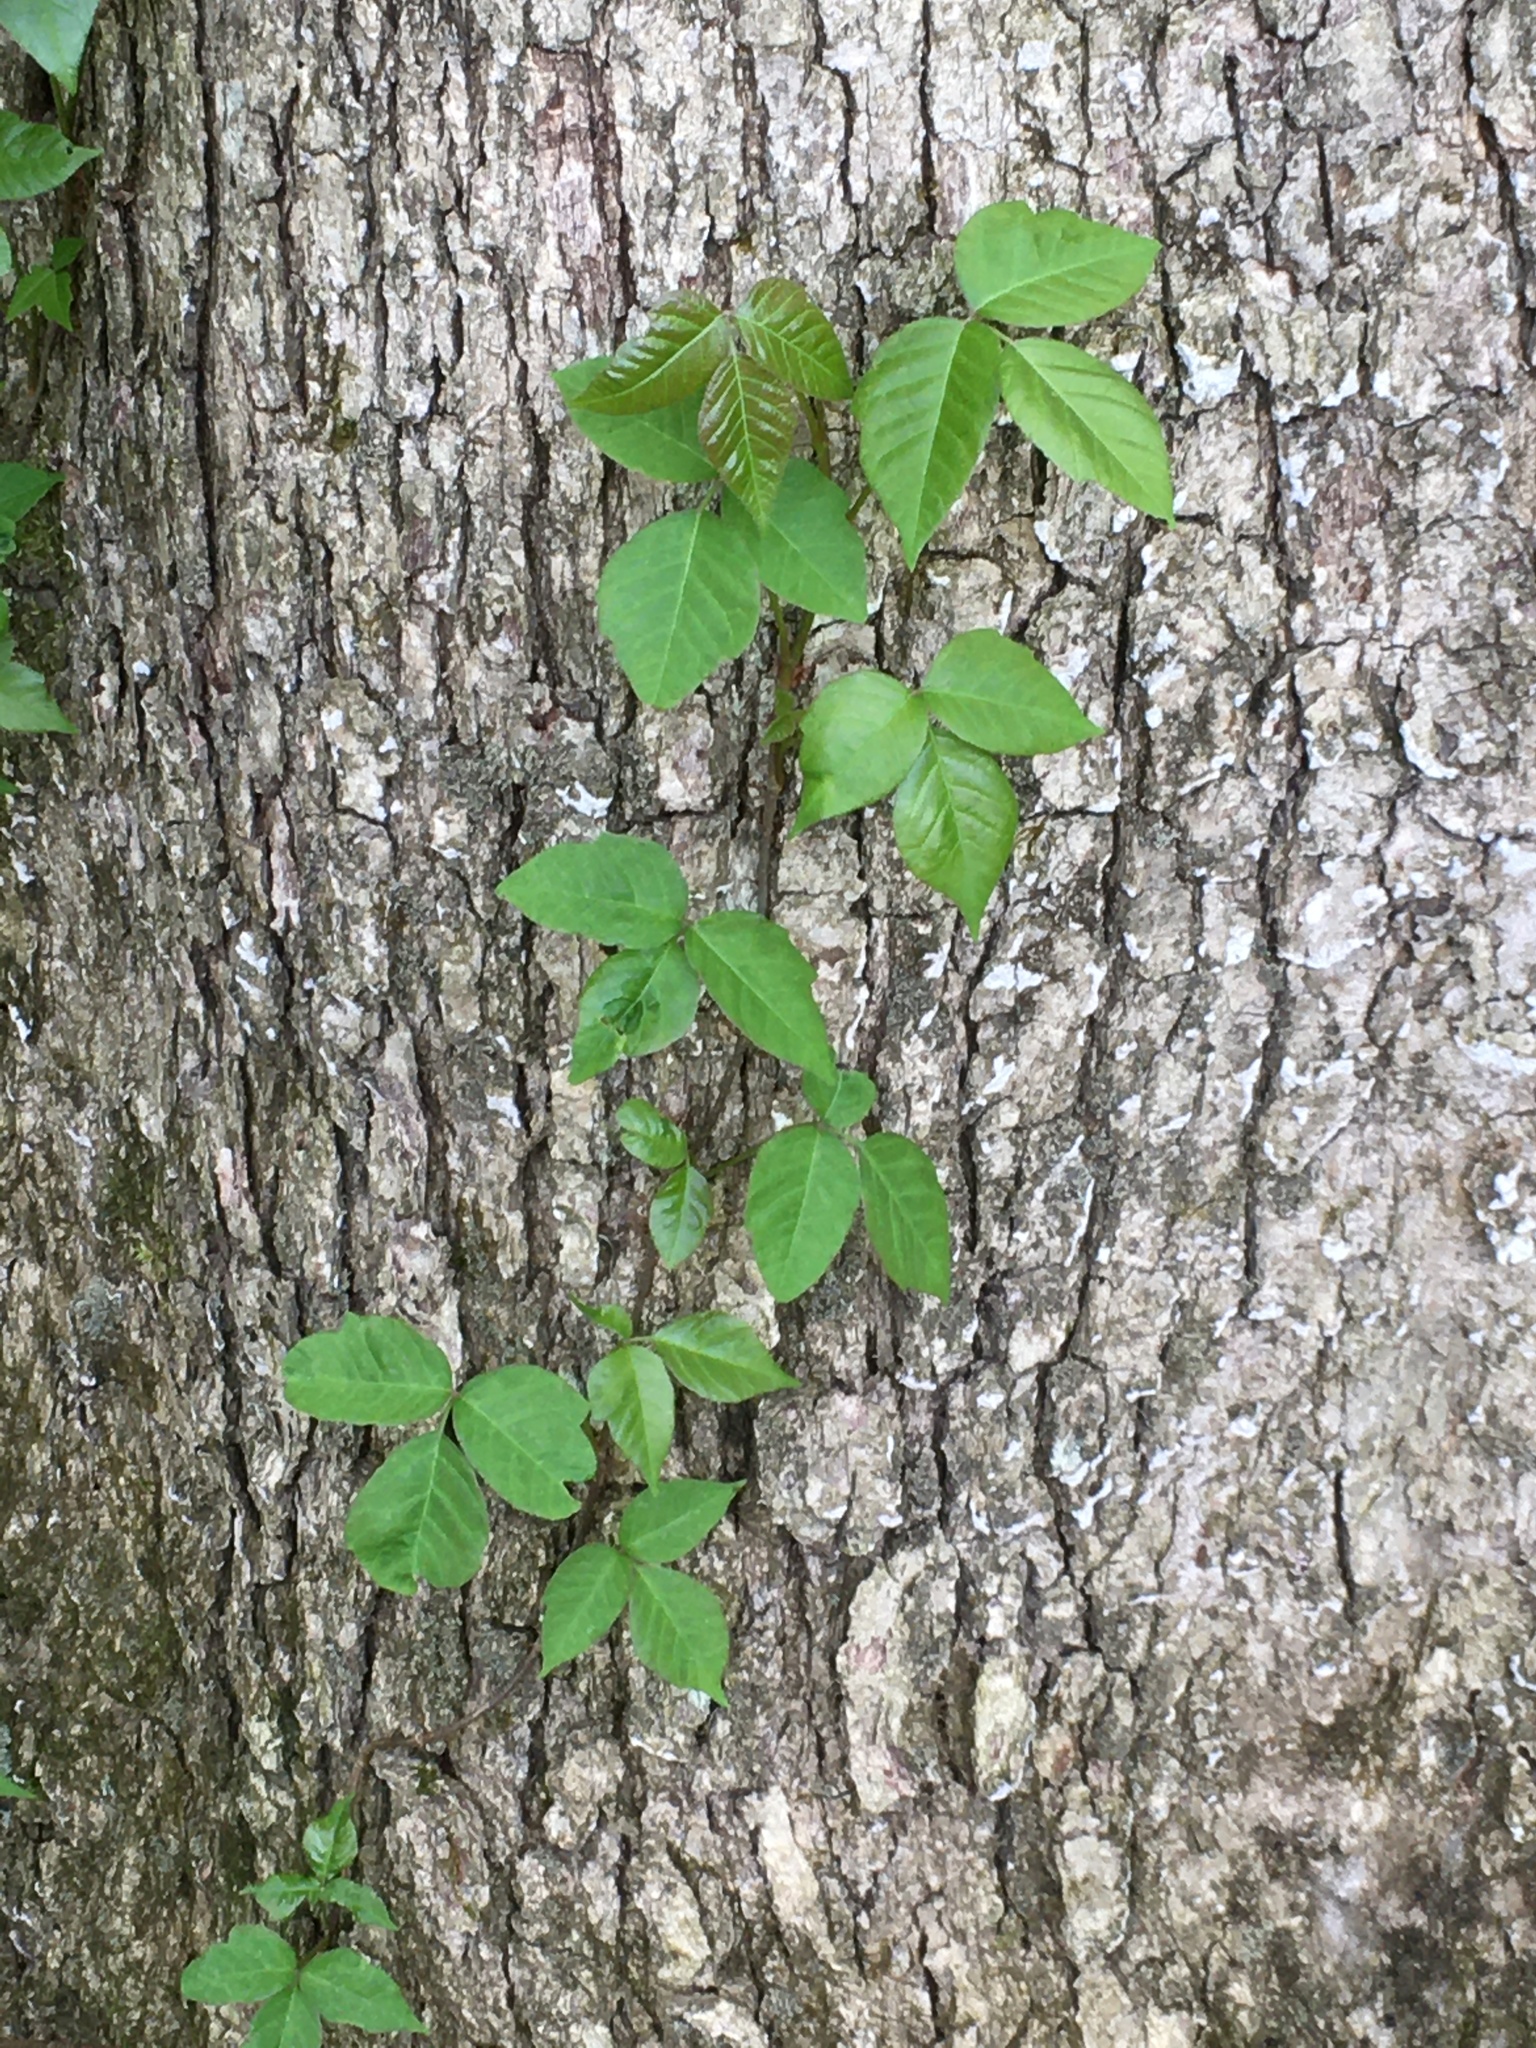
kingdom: Plantae
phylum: Tracheophyta
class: Magnoliopsida
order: Sapindales
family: Anacardiaceae
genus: Toxicodendron
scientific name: Toxicodendron radicans
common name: Poison ivy
